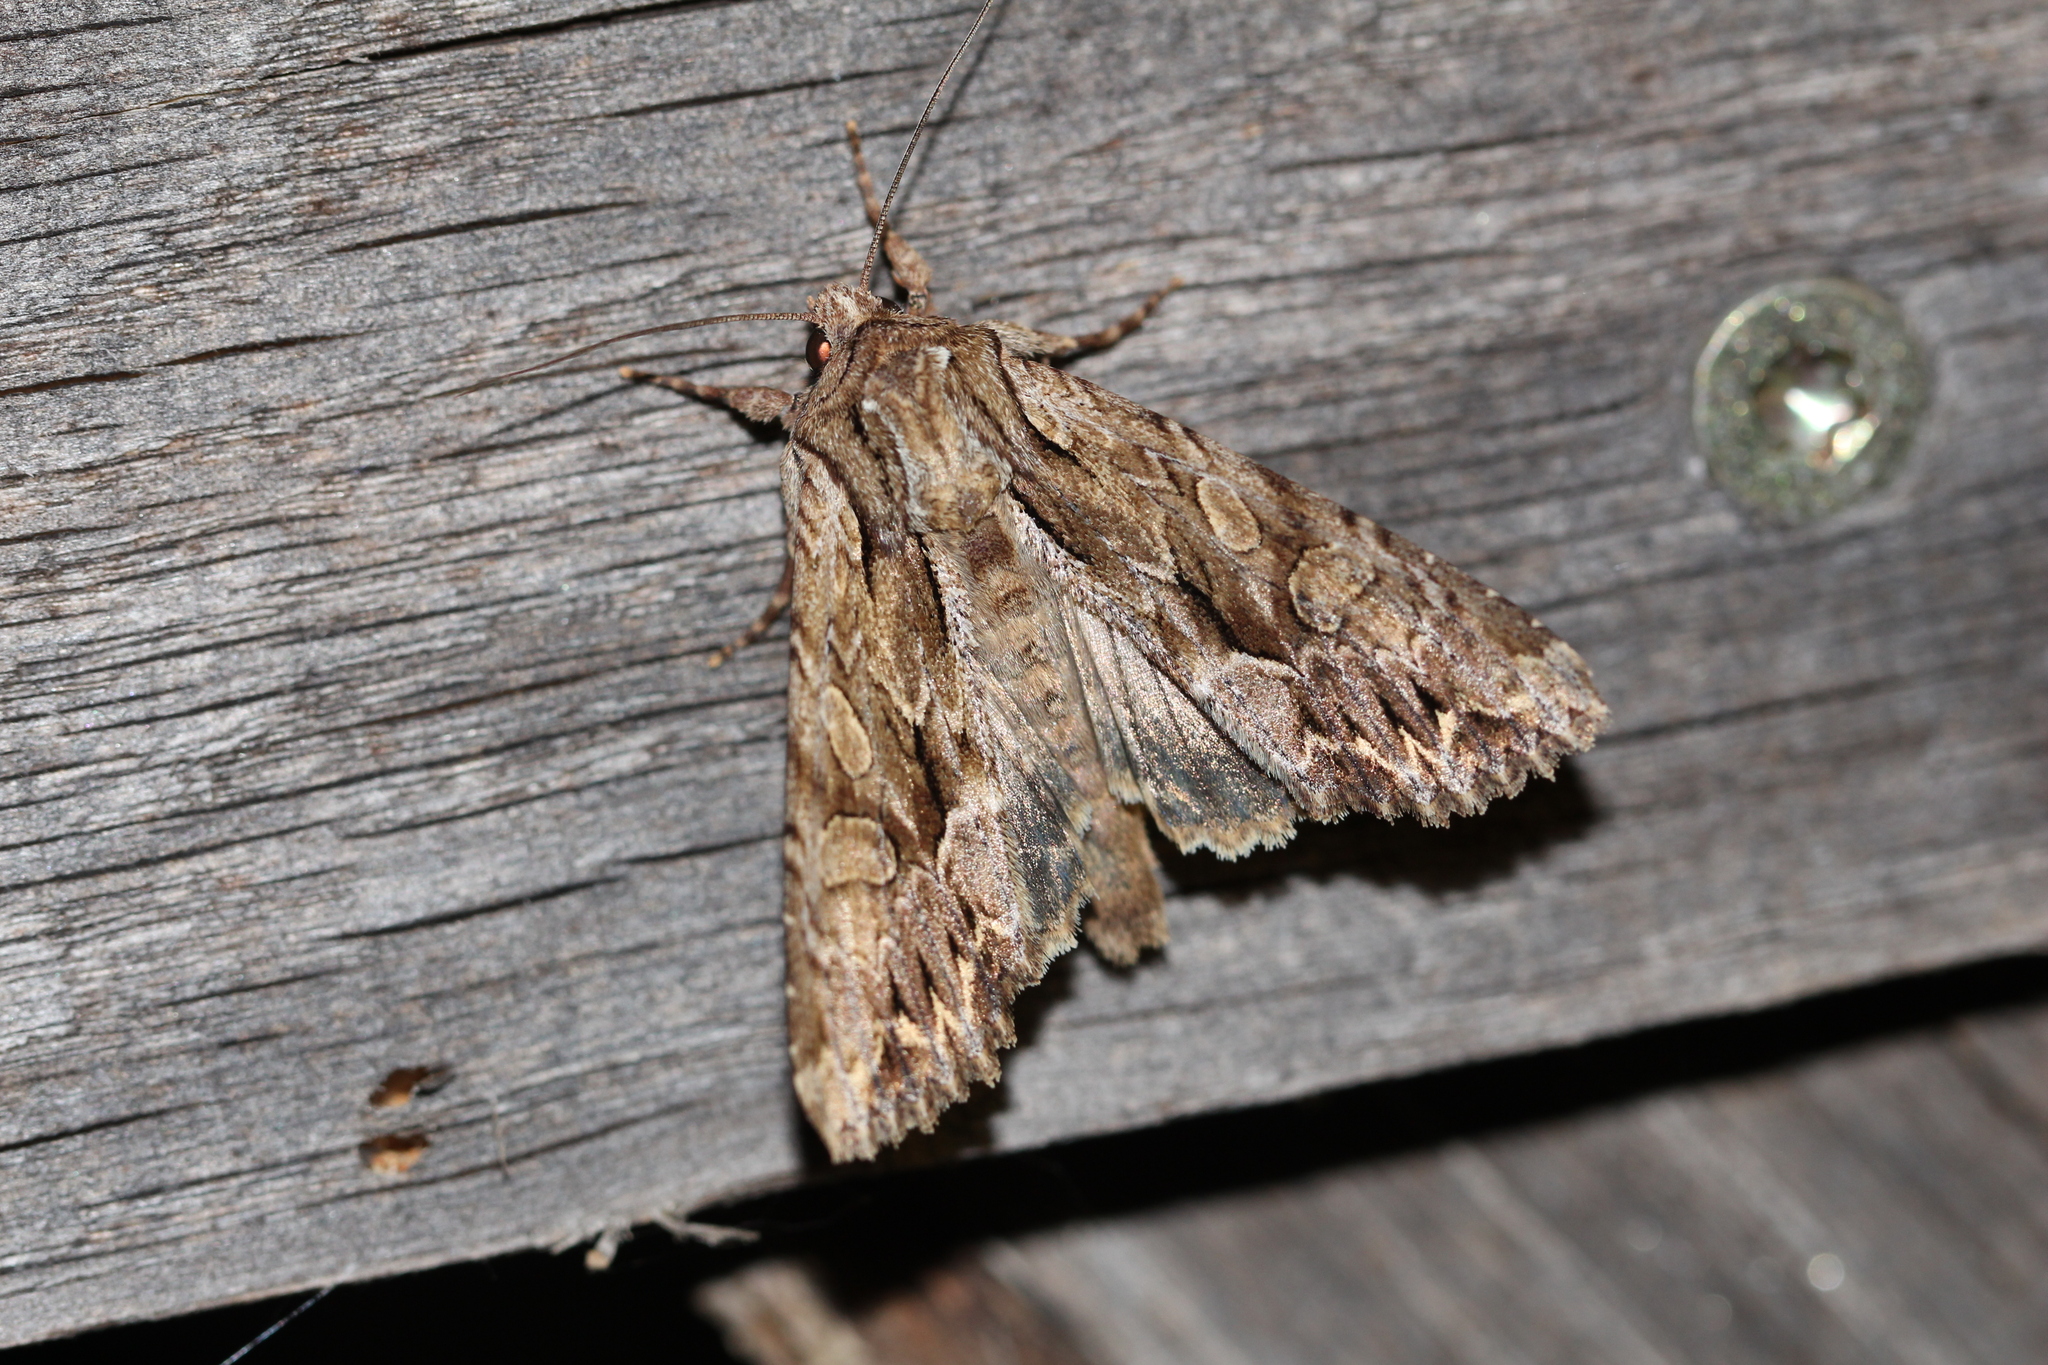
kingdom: Animalia
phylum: Arthropoda
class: Insecta
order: Lepidoptera
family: Noctuidae
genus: Apamea
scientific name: Apamea monoglypha
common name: Dark arches
